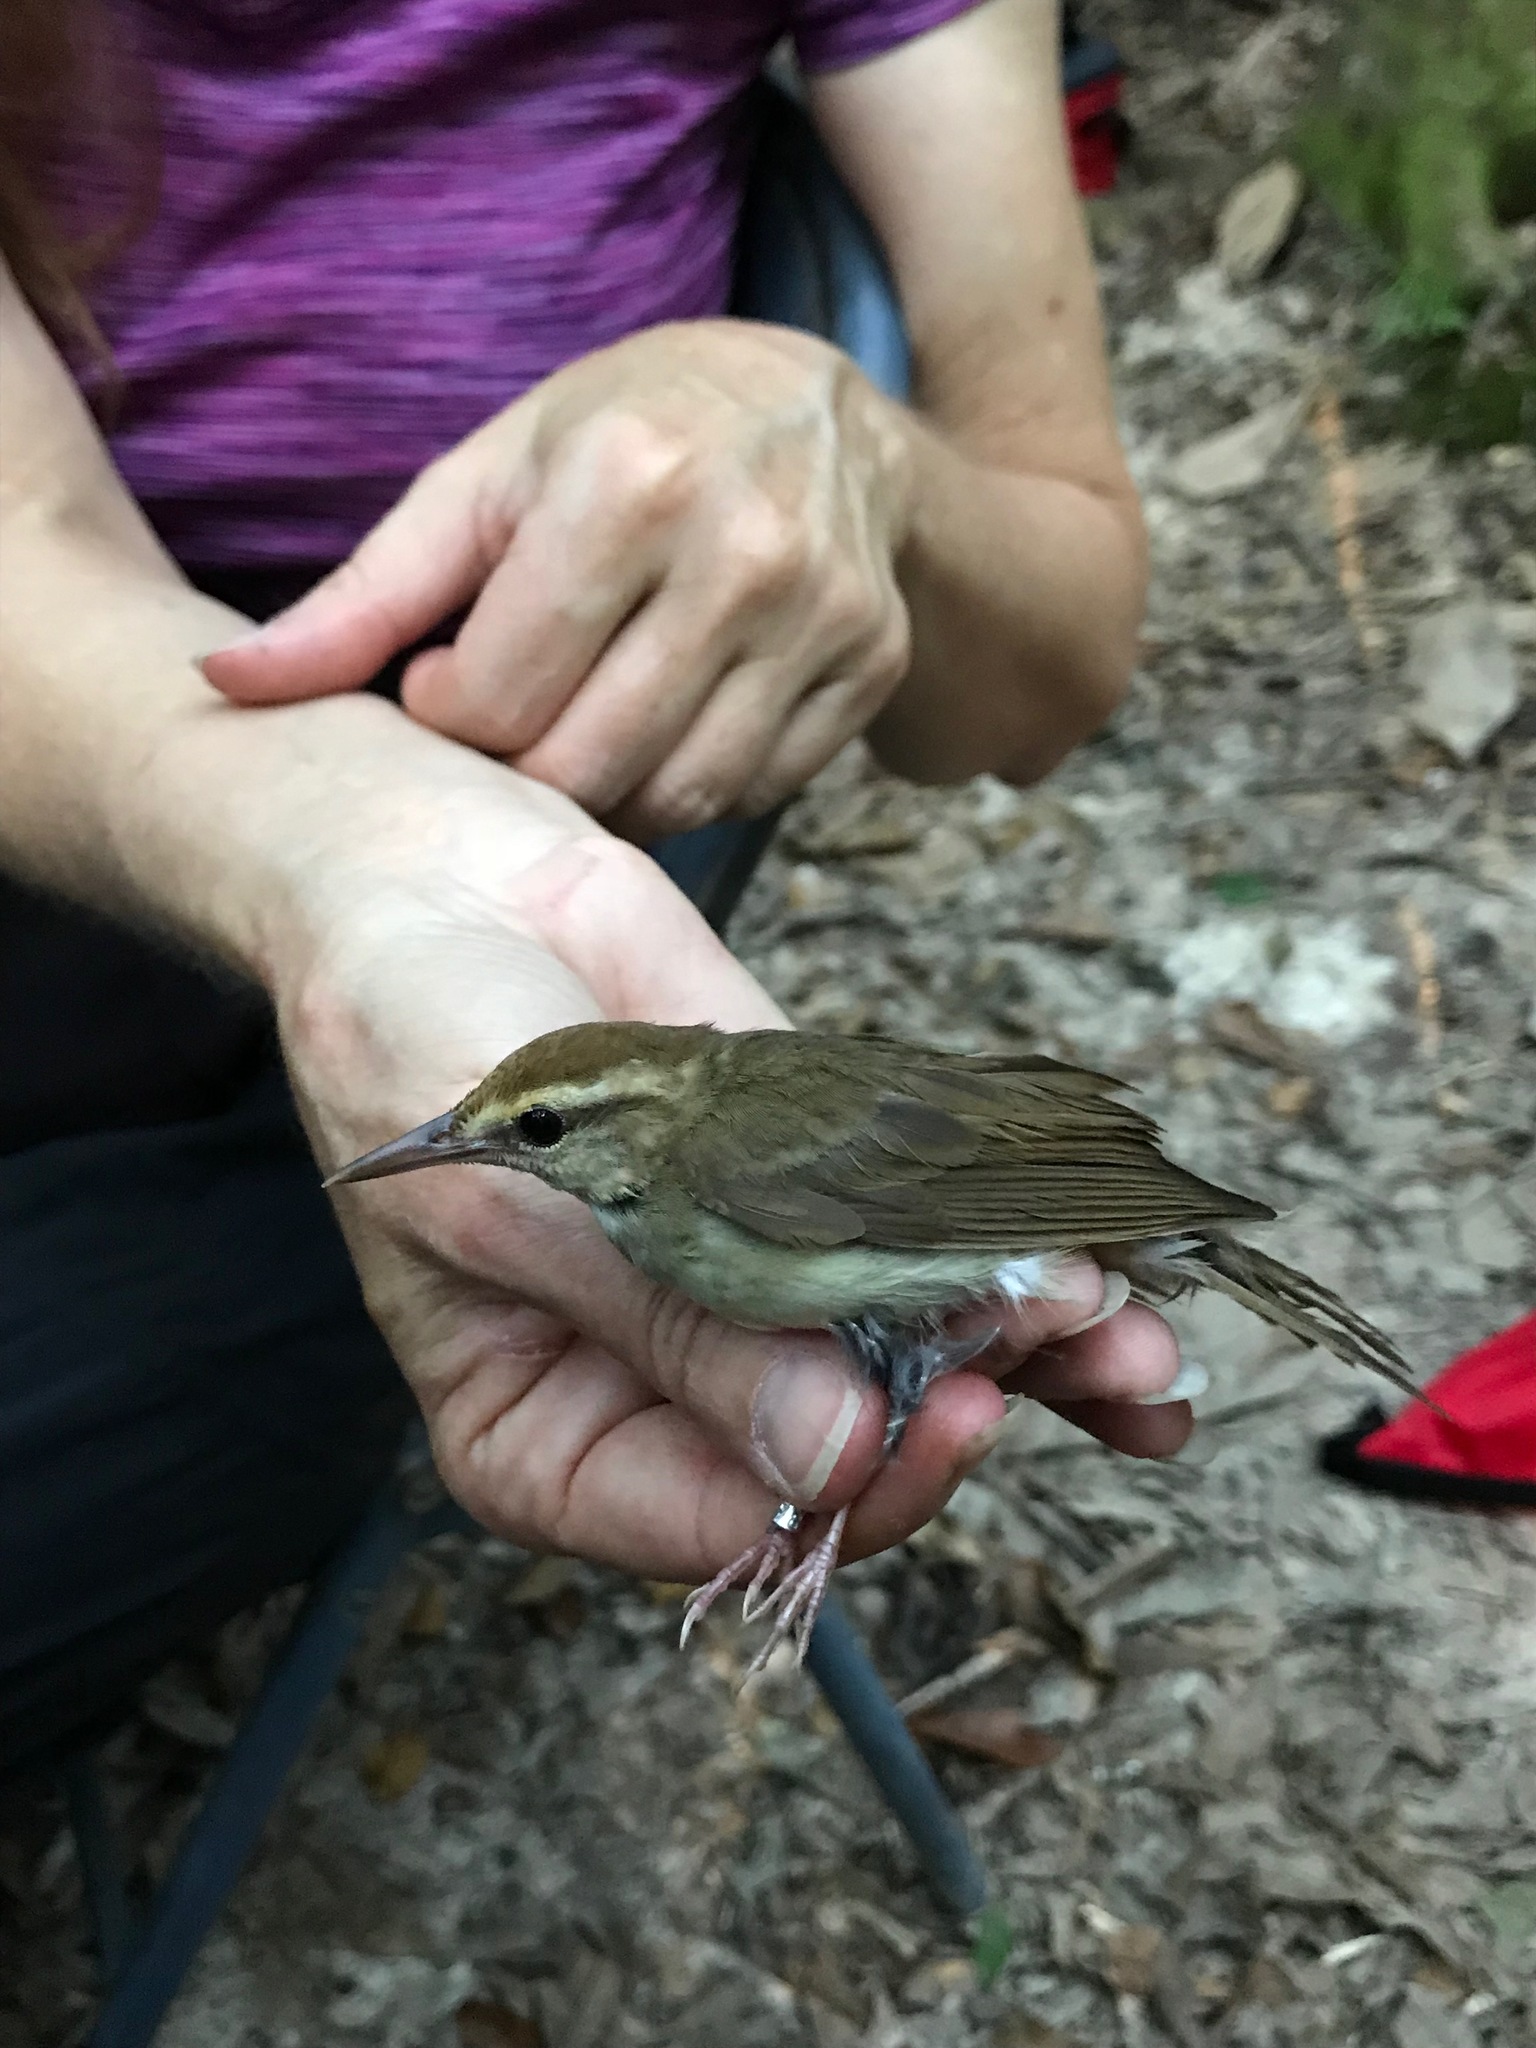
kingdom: Animalia
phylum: Chordata
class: Aves
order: Passeriformes
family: Parulidae
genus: Limnothlypis
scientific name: Limnothlypis swainsonii
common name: Swainson's warbler
